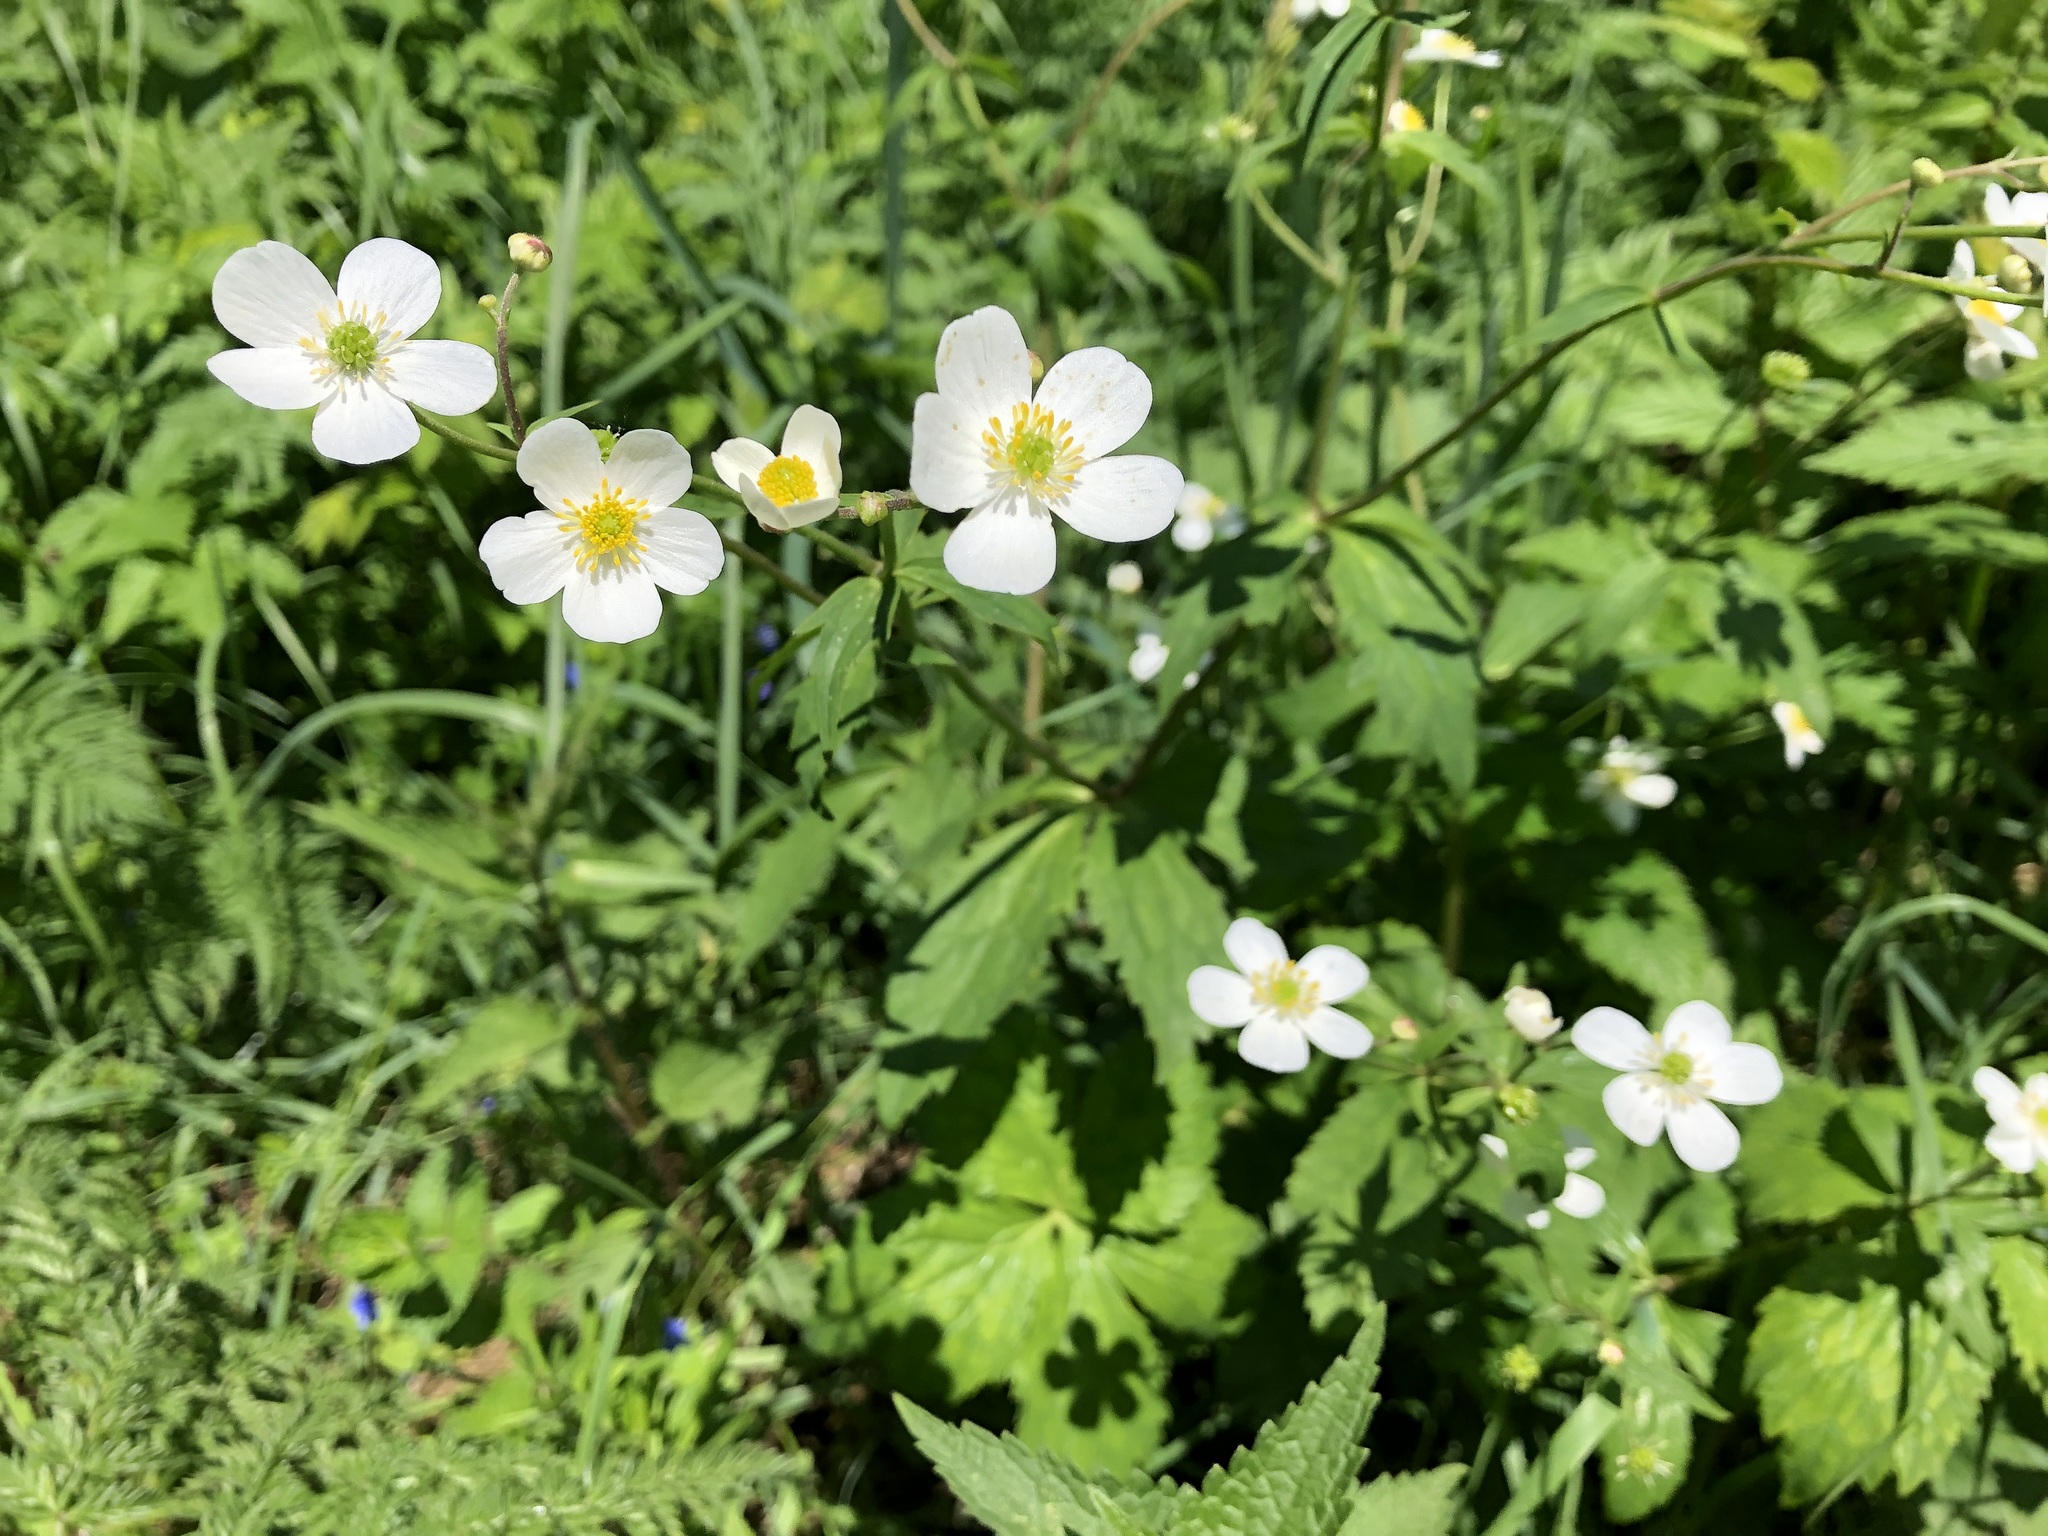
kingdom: Plantae
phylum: Tracheophyta
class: Magnoliopsida
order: Ranunculales
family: Ranunculaceae
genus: Ranunculus
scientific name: Ranunculus aconitifolius
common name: Aconite-leaved buttercup
